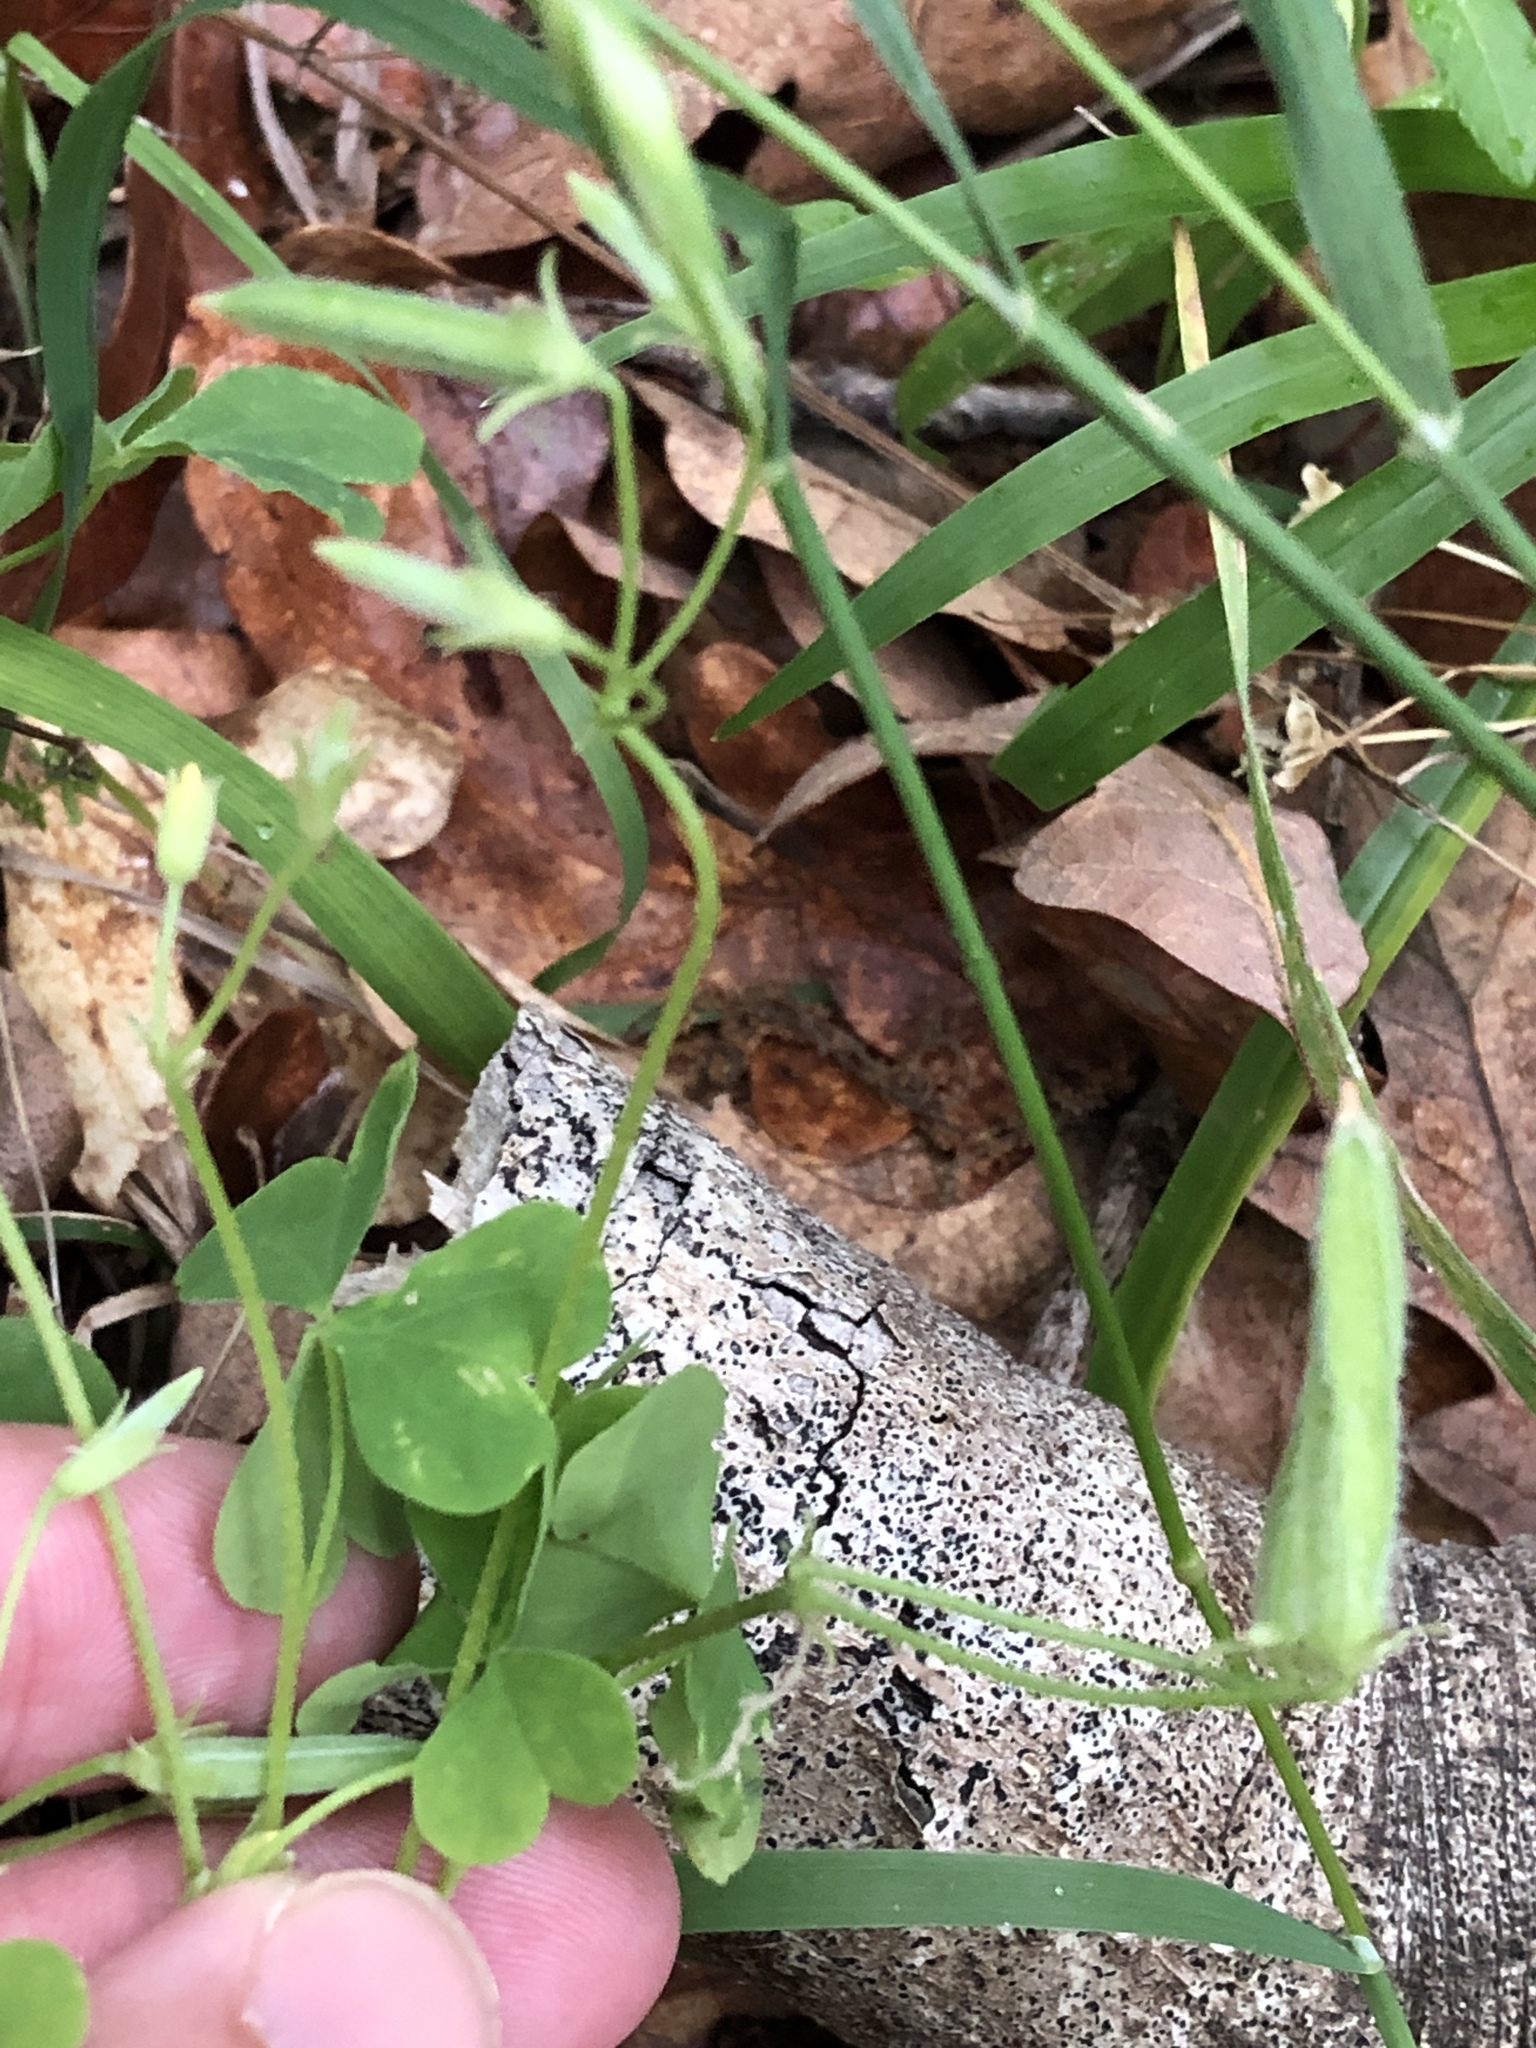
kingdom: Plantae
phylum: Tracheophyta
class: Magnoliopsida
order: Oxalidales
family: Oxalidaceae
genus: Oxalis
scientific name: Oxalis dillenii
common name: Sussex yellow-sorrel
